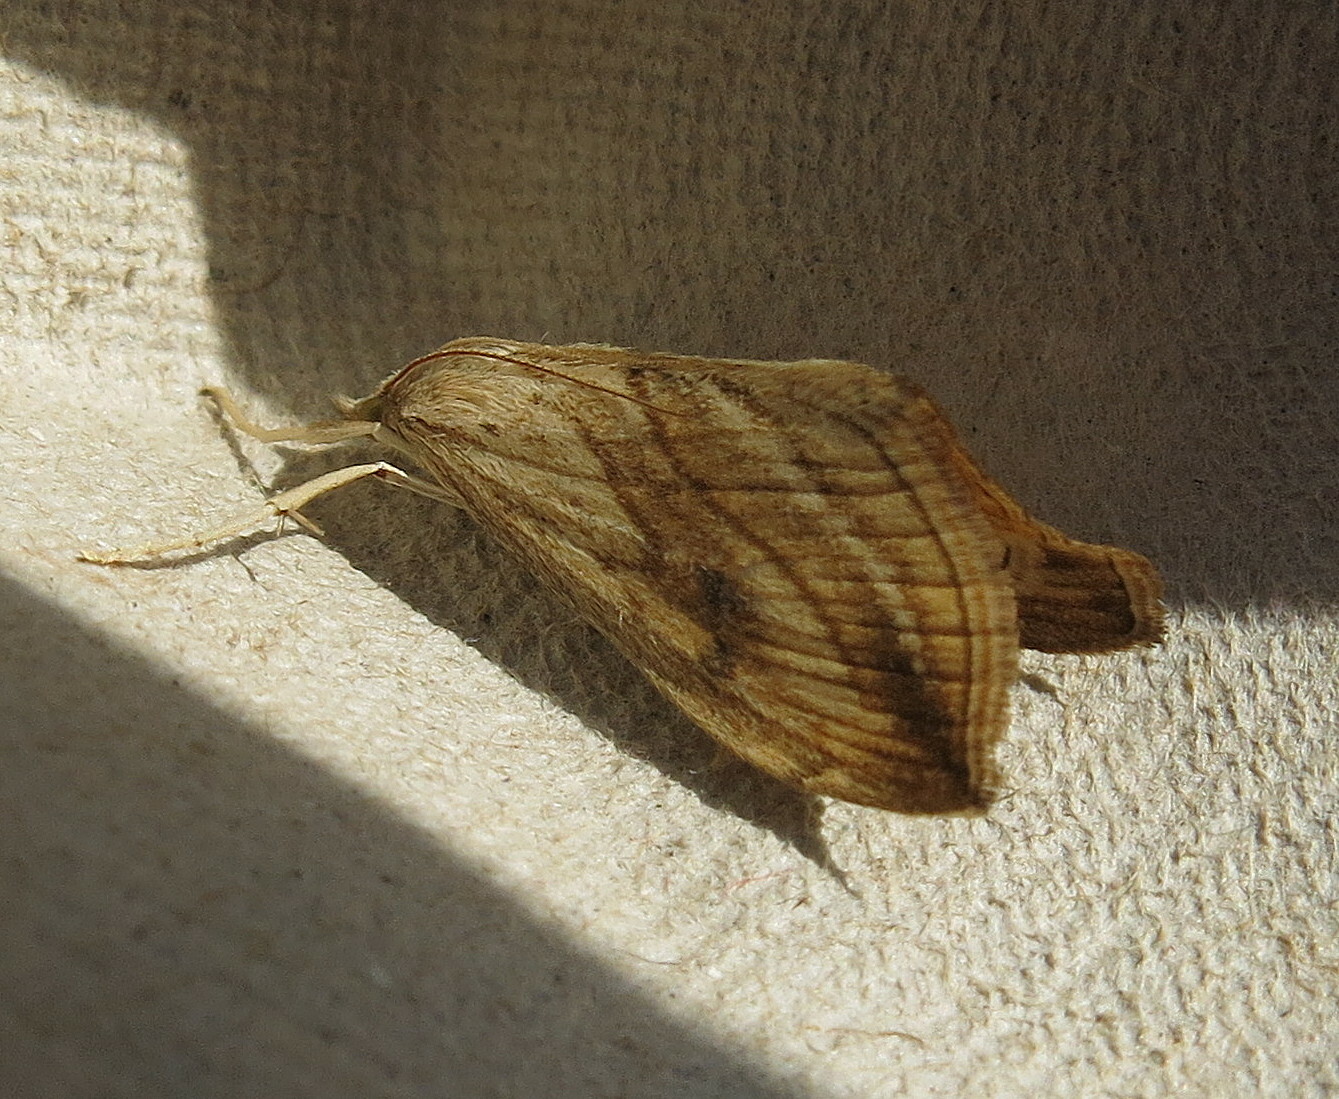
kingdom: Animalia
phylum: Arthropoda
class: Insecta
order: Lepidoptera
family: Crambidae
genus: Evergestis
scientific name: Evergestis forficalis
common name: Garden pebble
